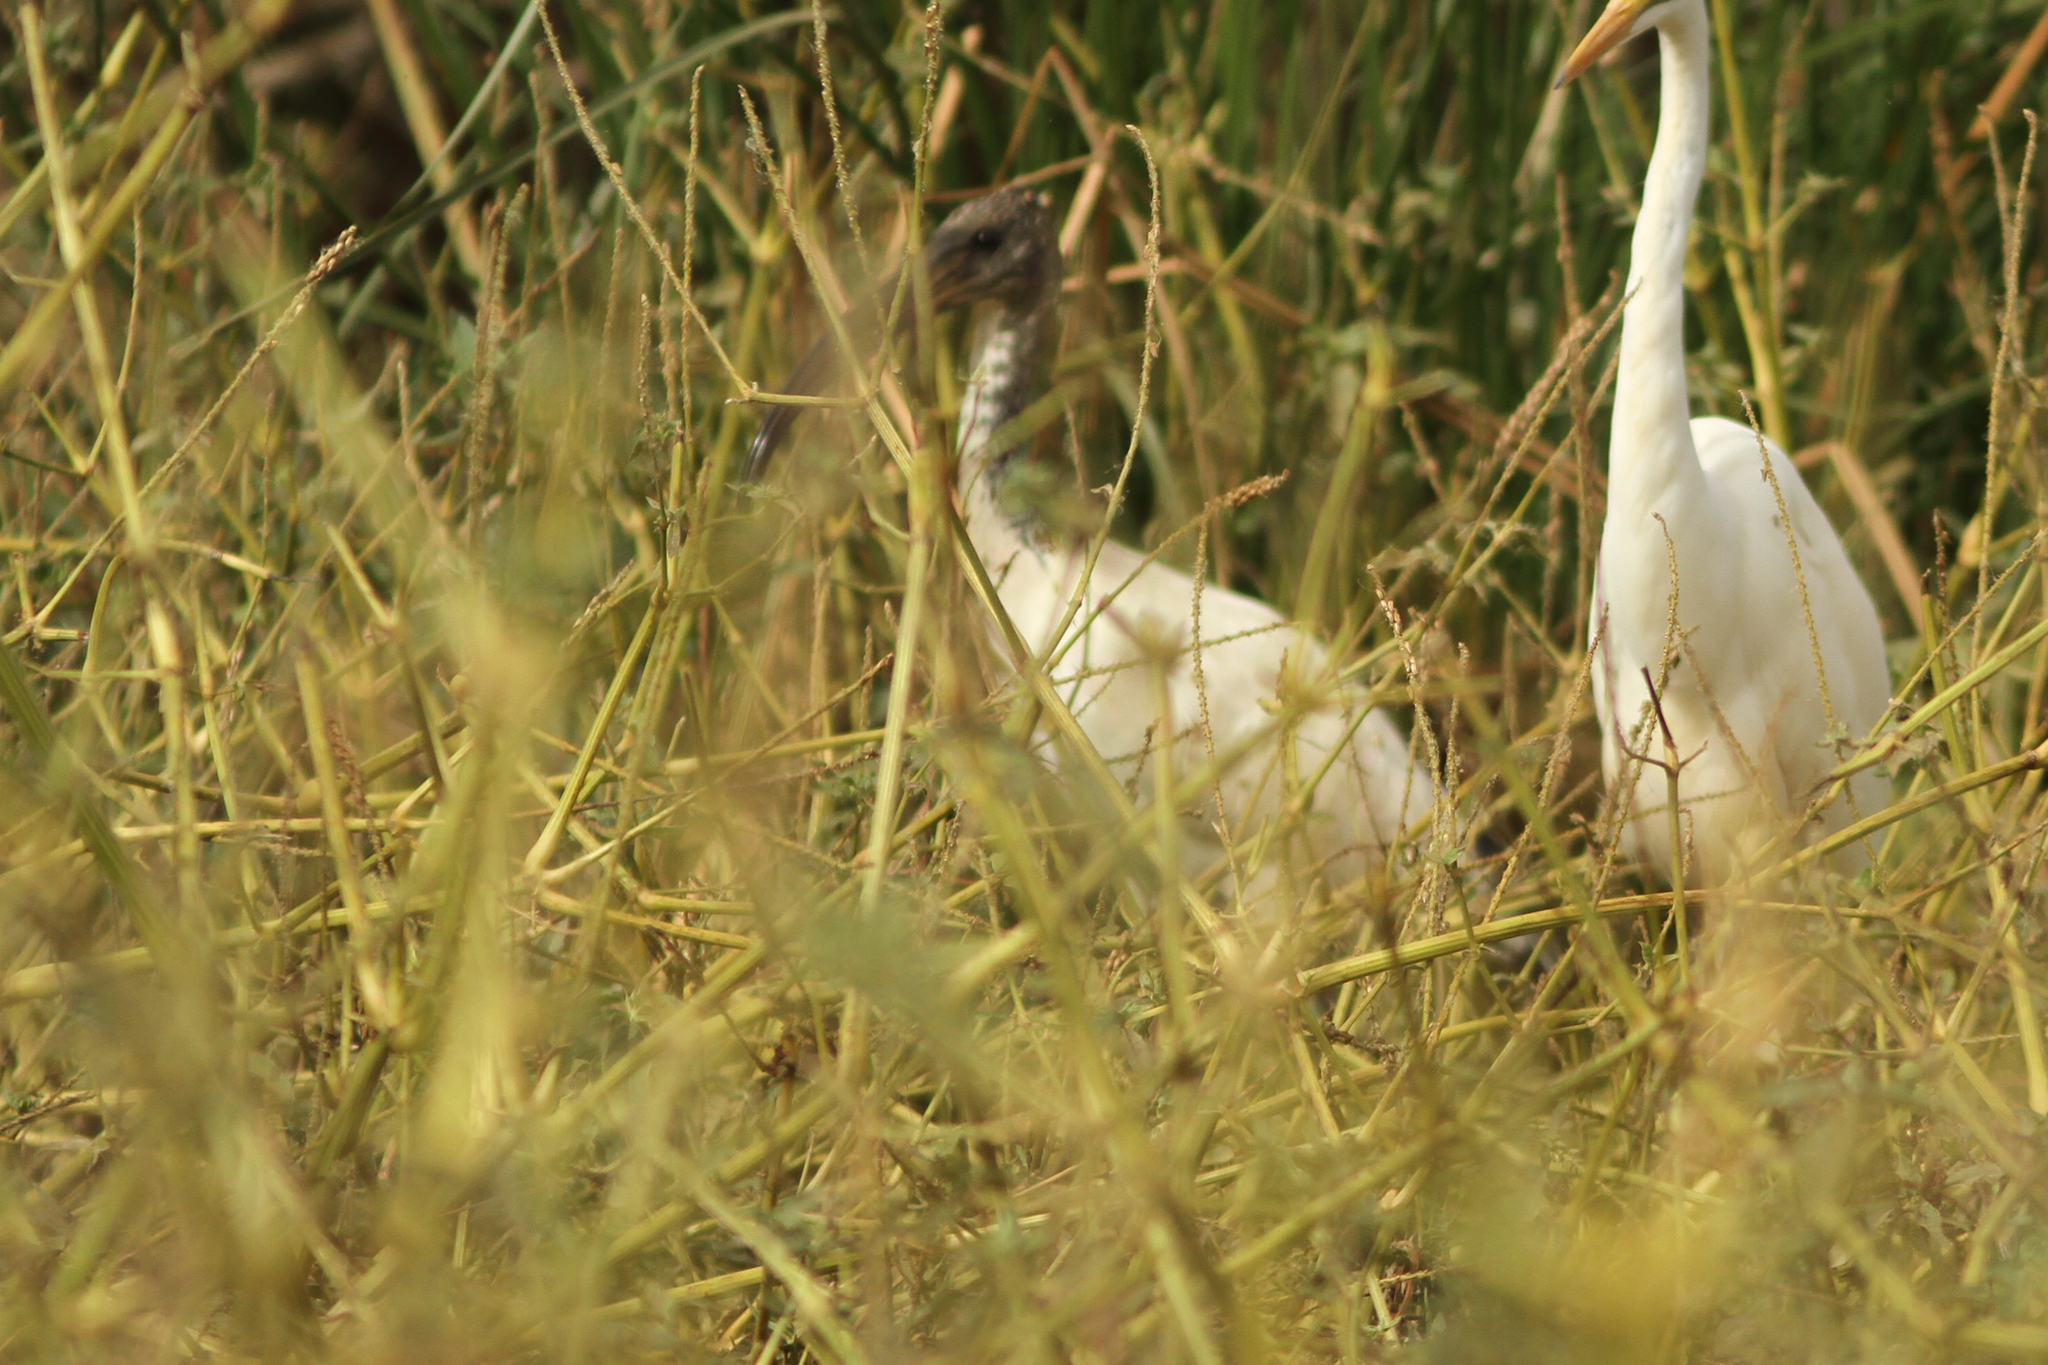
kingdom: Animalia
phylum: Chordata
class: Aves
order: Pelecaniformes
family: Threskiornithidae
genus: Threskiornis
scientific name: Threskiornis aethiopicus
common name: Sacred ibis
